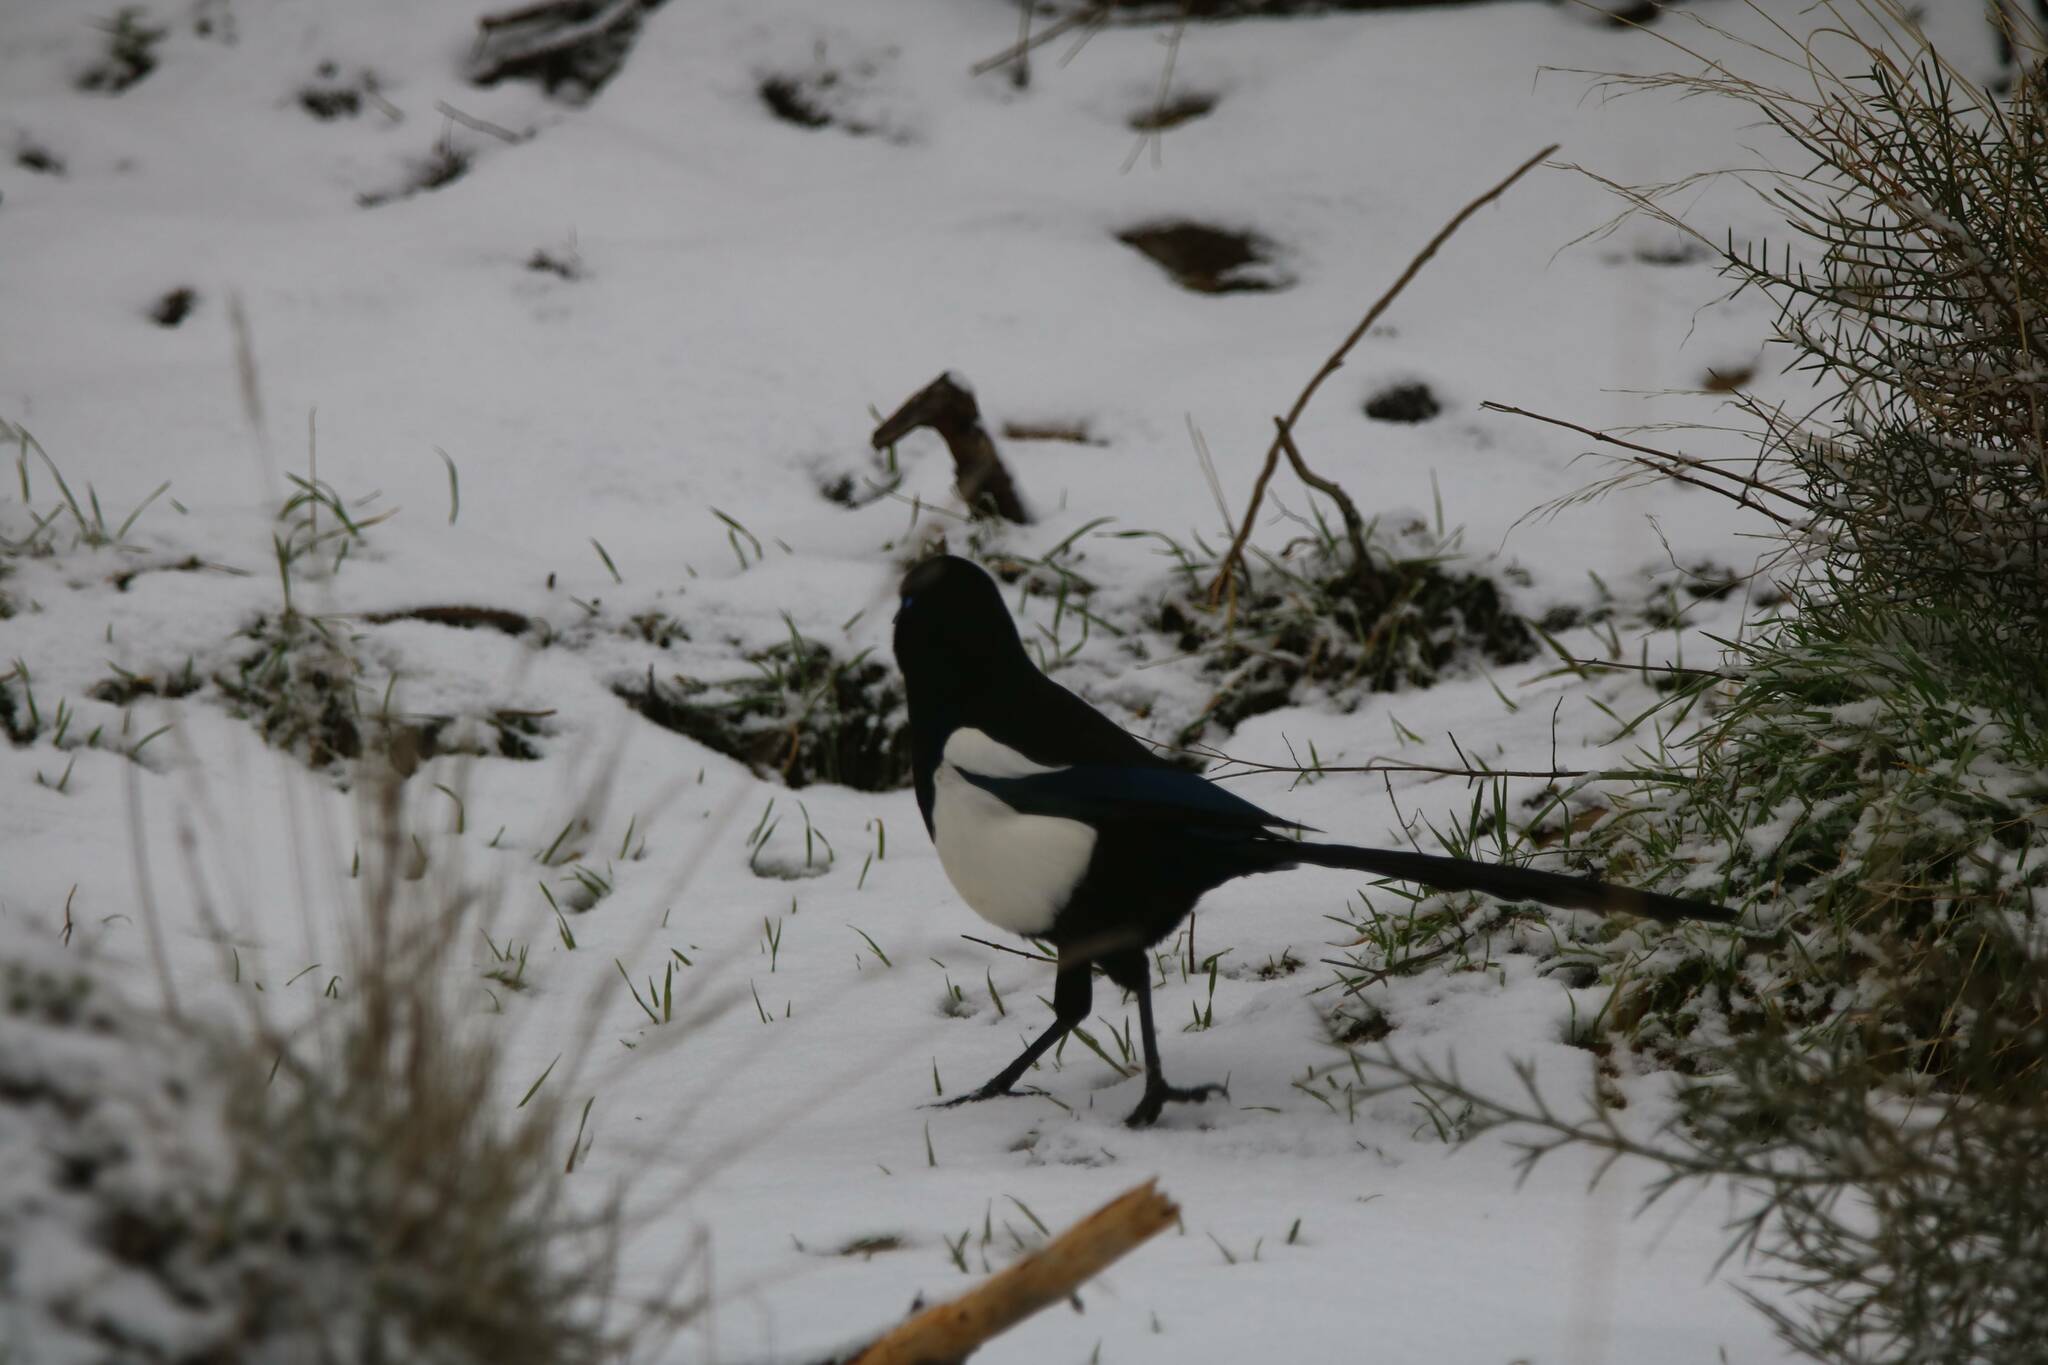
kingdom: Animalia
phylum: Chordata
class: Aves
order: Passeriformes
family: Corvidae
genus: Pica
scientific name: Pica mauritanica
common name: Maghreb magpie
